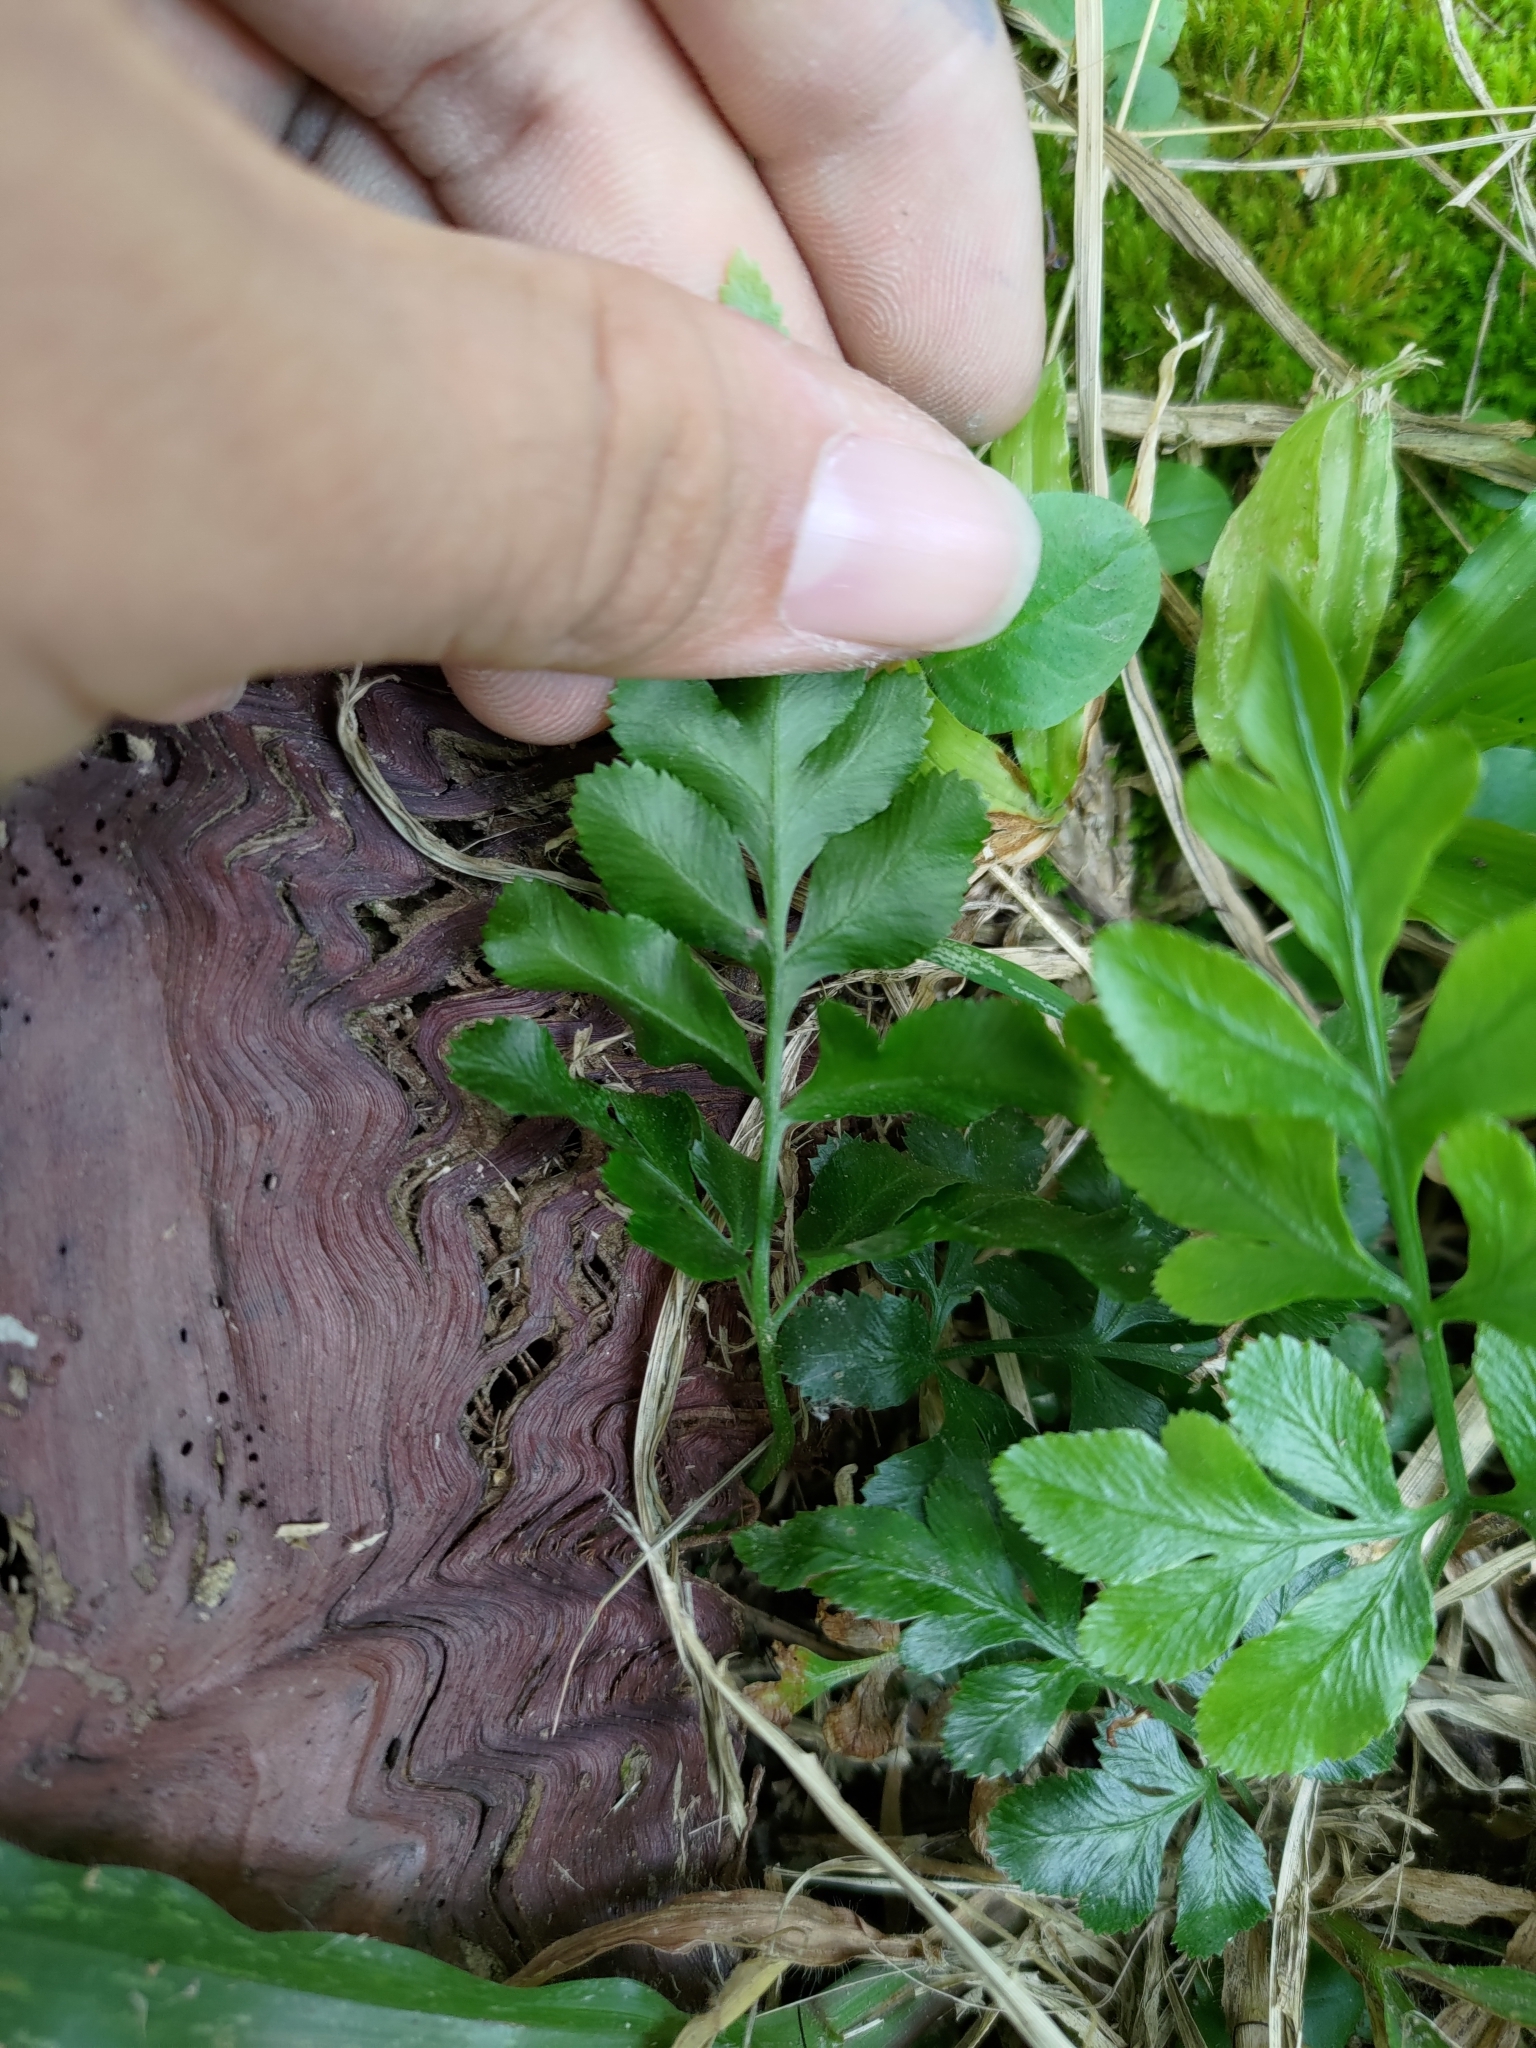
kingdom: Plantae
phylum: Tracheophyta
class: Polypodiopsida
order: Polypodiales
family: Pteridaceae
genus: Pteris
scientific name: Pteris ensiformis
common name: Sword brake
